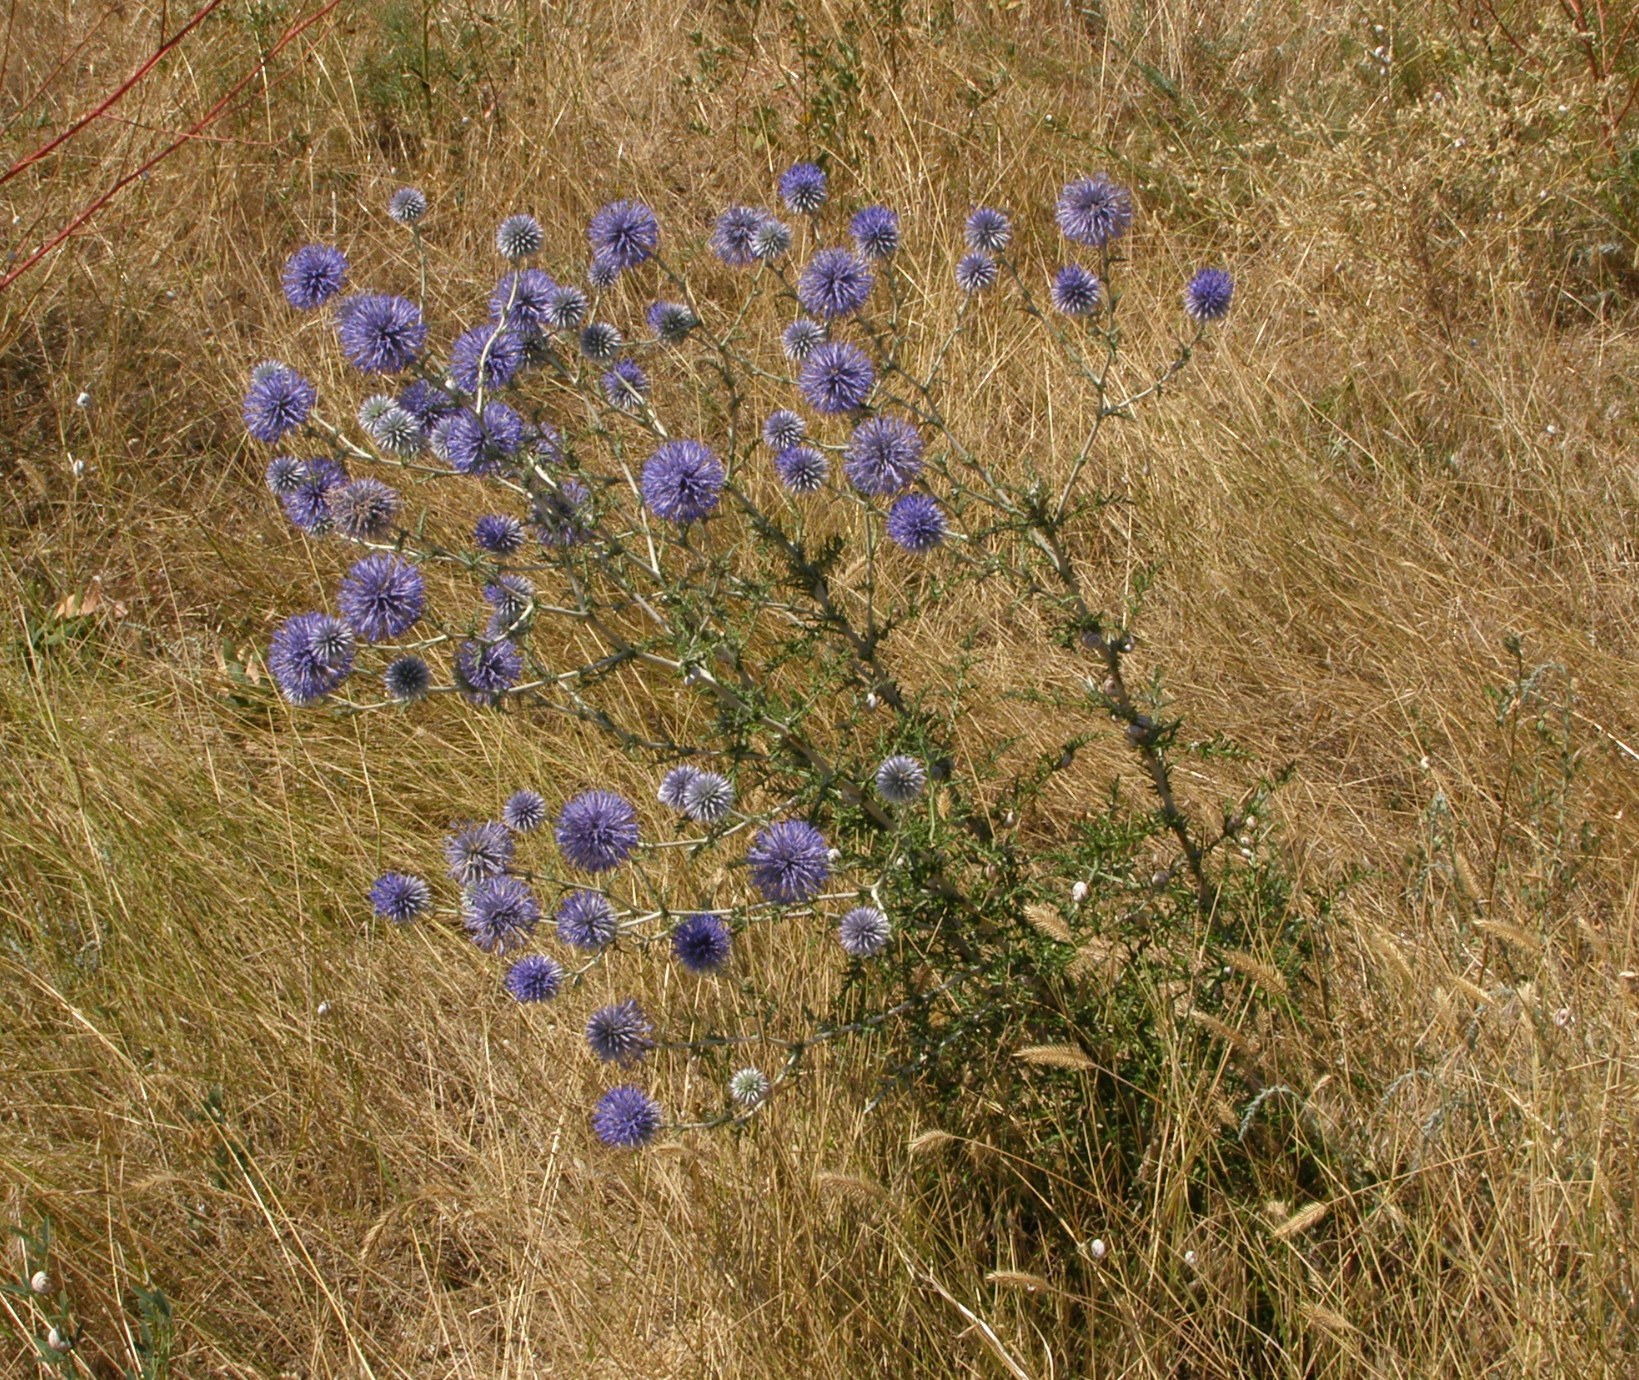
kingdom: Plantae
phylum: Tracheophyta
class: Magnoliopsida
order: Asterales
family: Asteraceae
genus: Echinops
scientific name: Echinops ritro
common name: Globe thistle
